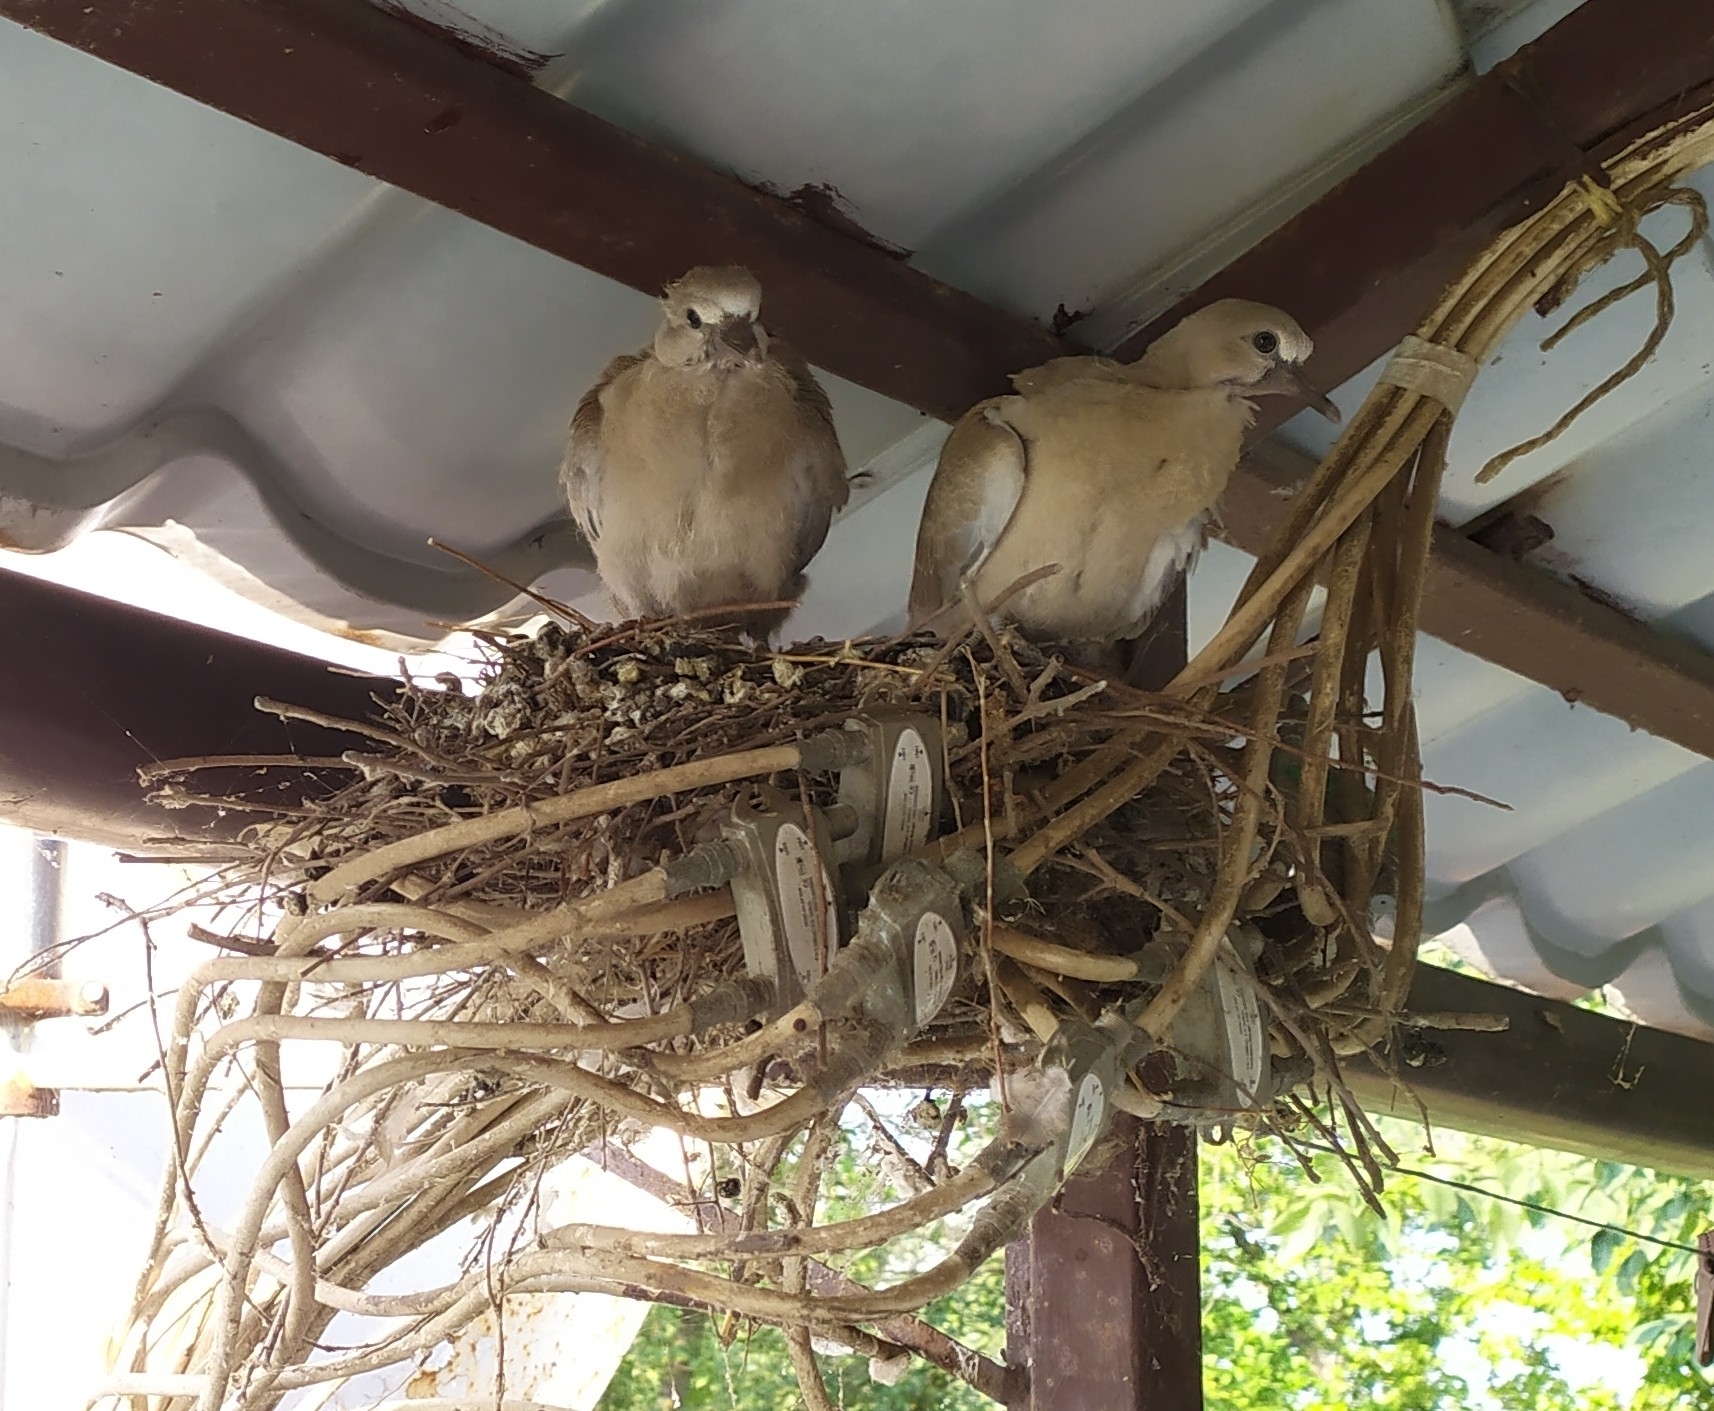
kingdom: Animalia
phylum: Chordata
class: Aves
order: Columbiformes
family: Columbidae
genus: Streptopelia
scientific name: Streptopelia decaocto
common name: Eurasian collared dove
